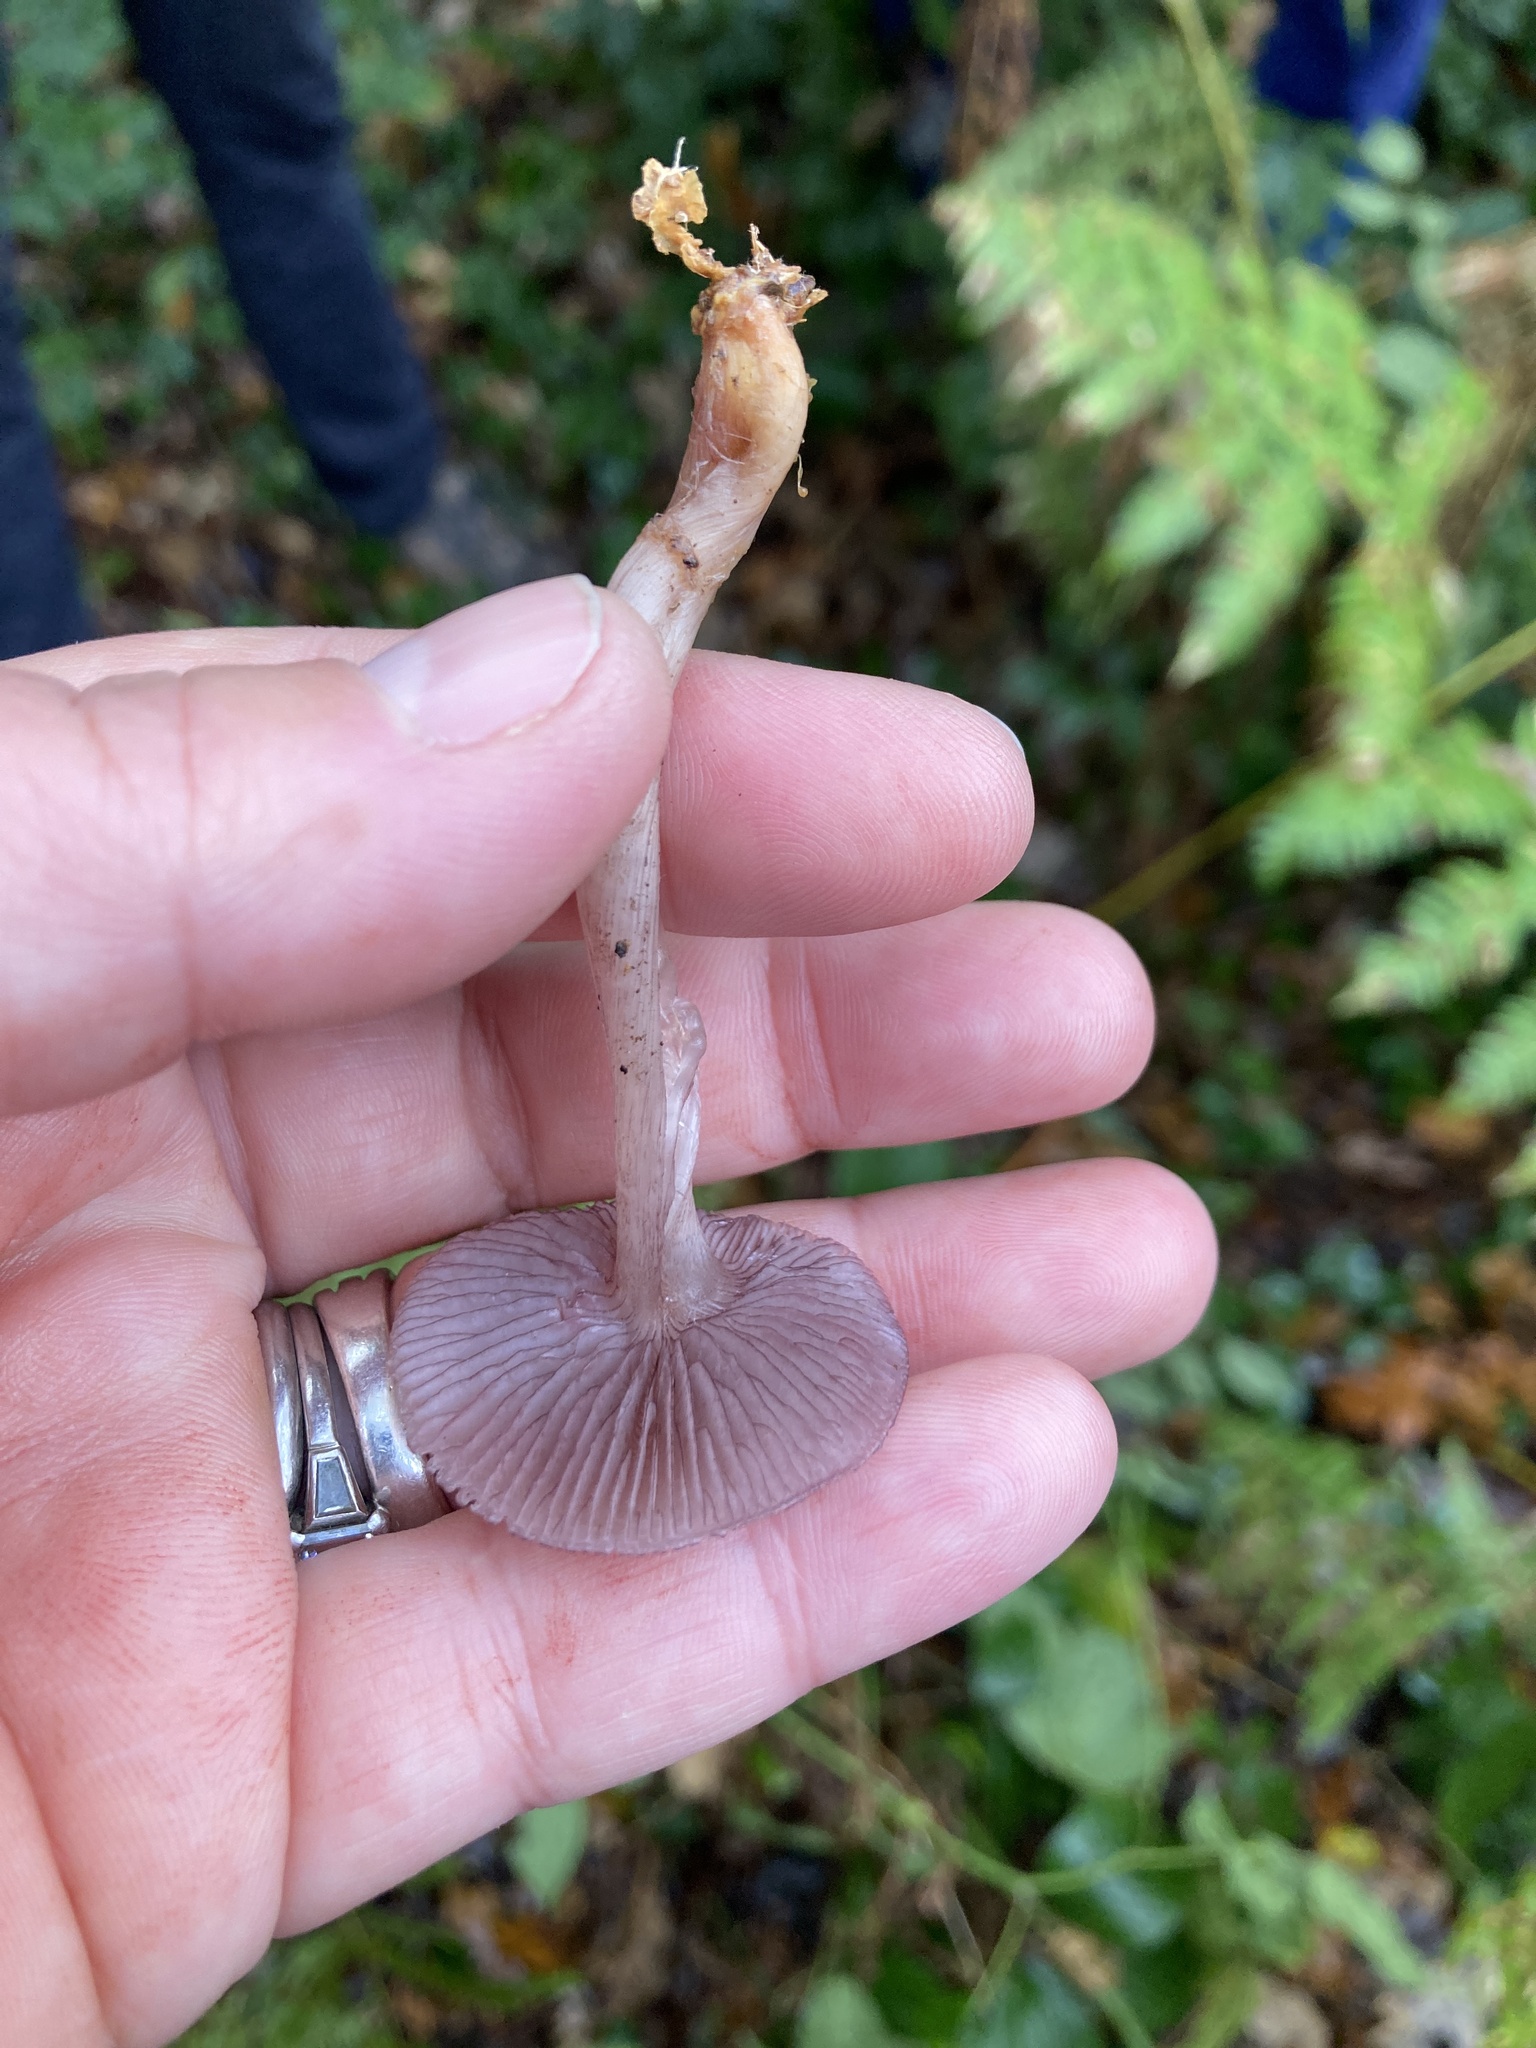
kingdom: Fungi
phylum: Basidiomycota
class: Agaricomycetes
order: Agaricales
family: Mycenaceae
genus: Mycena
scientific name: Mycena pelianthina
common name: Blackedge bonnet
